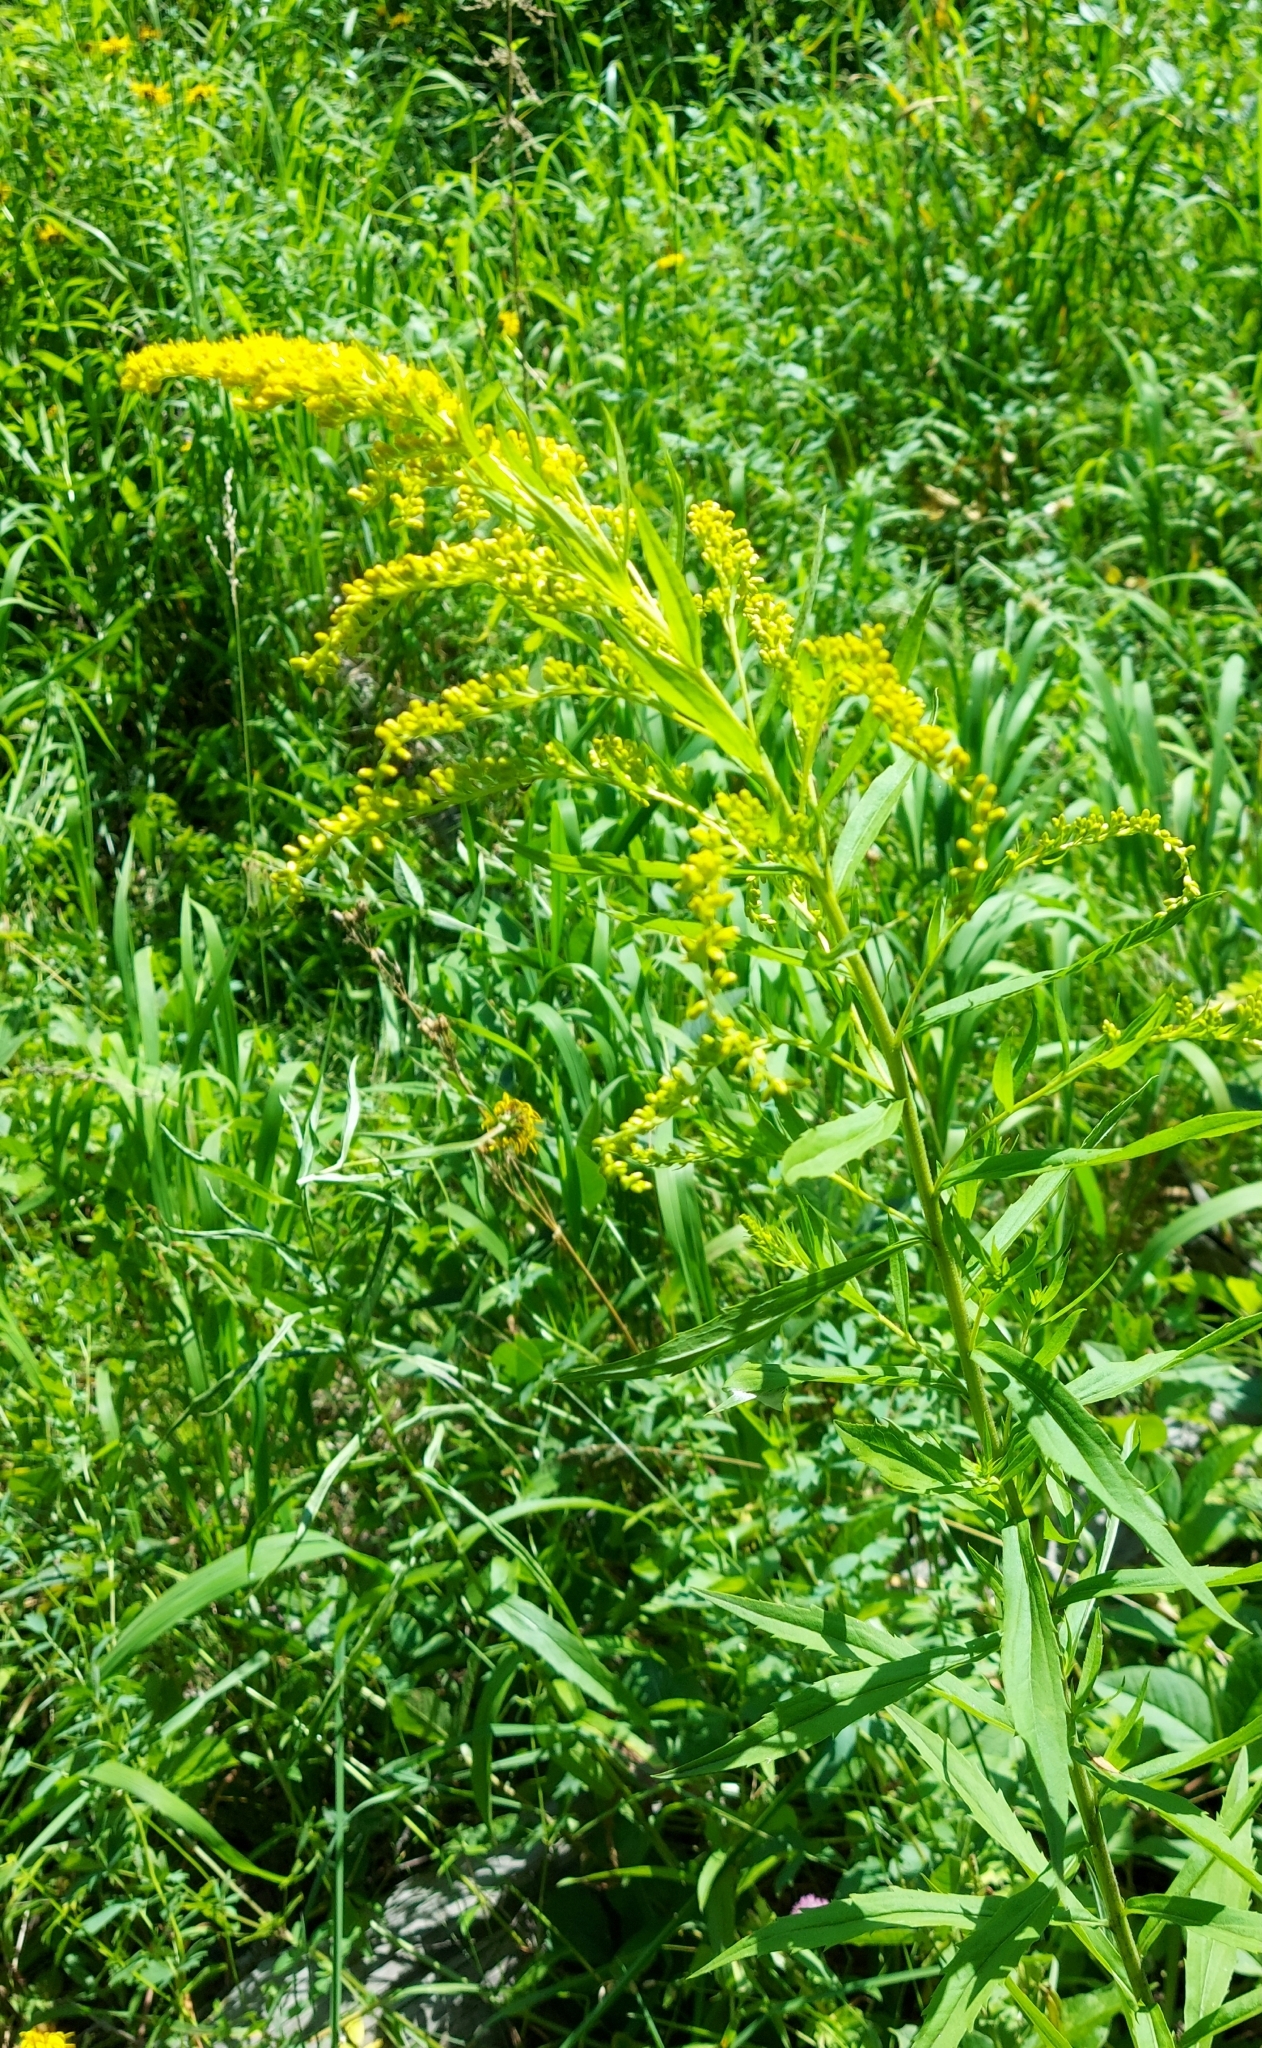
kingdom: Plantae
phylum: Tracheophyta
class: Magnoliopsida
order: Asterales
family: Asteraceae
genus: Solidago
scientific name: Solidago canadensis
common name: Canada goldenrod
